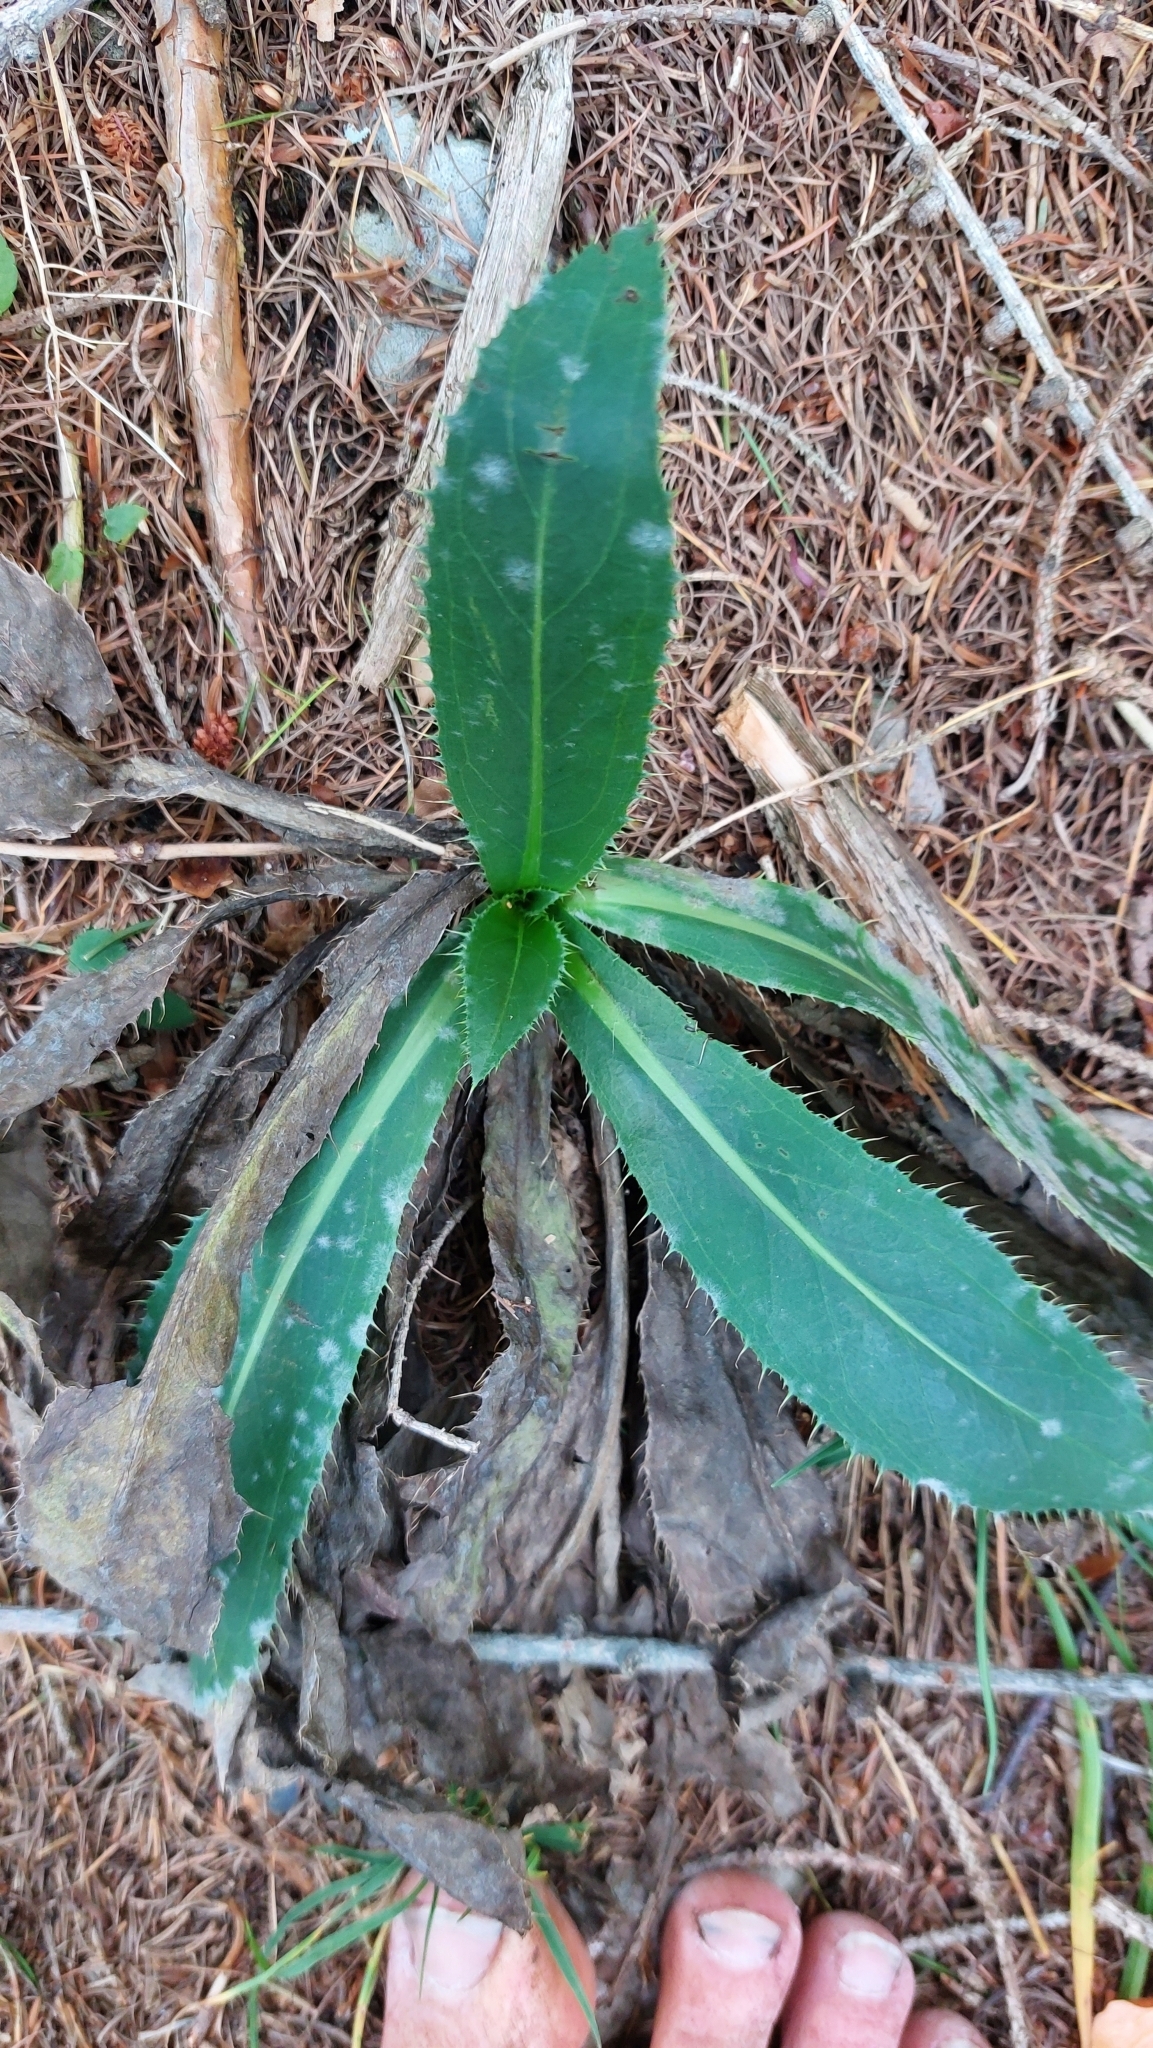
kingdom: Plantae
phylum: Tracheophyta
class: Magnoliopsida
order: Asterales
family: Asteraceae
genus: Carduus
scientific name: Carduus defloratus
